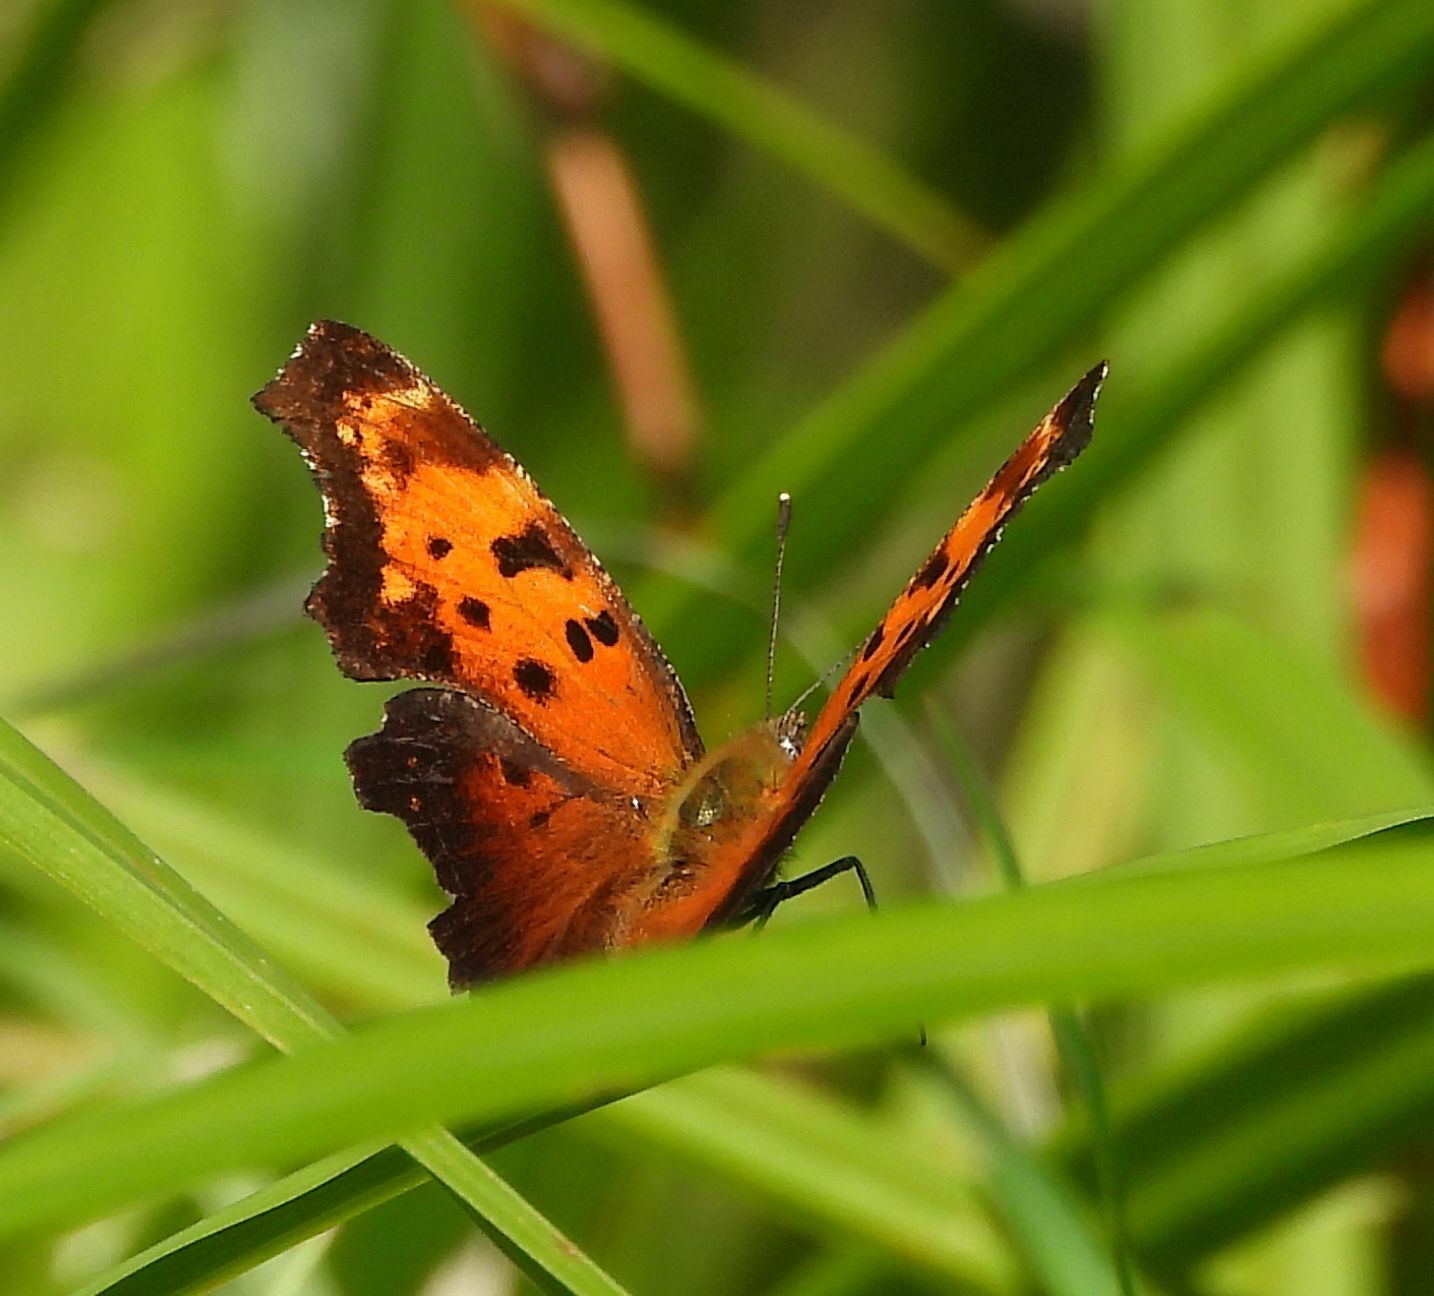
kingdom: Animalia
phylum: Arthropoda
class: Insecta
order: Lepidoptera
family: Nymphalidae
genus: Polygonia
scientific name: Polygonia progne
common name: Gray comma
